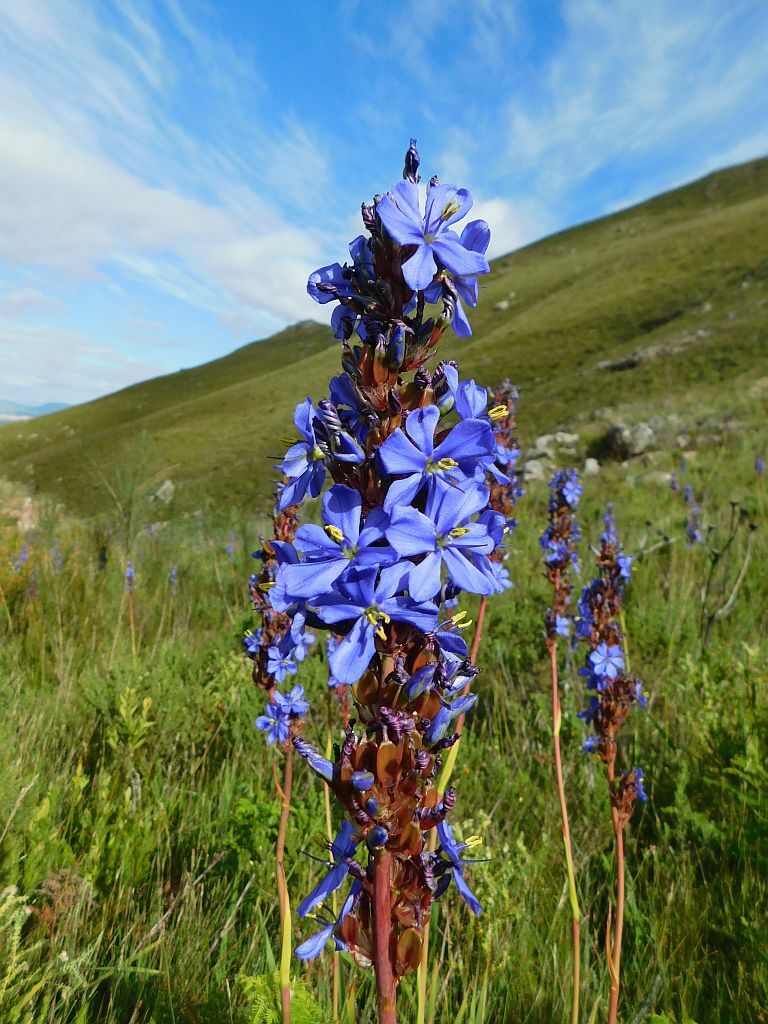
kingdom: Plantae
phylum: Tracheophyta
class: Liliopsida
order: Asparagales
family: Iridaceae
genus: Aristea
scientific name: Aristea capitata
